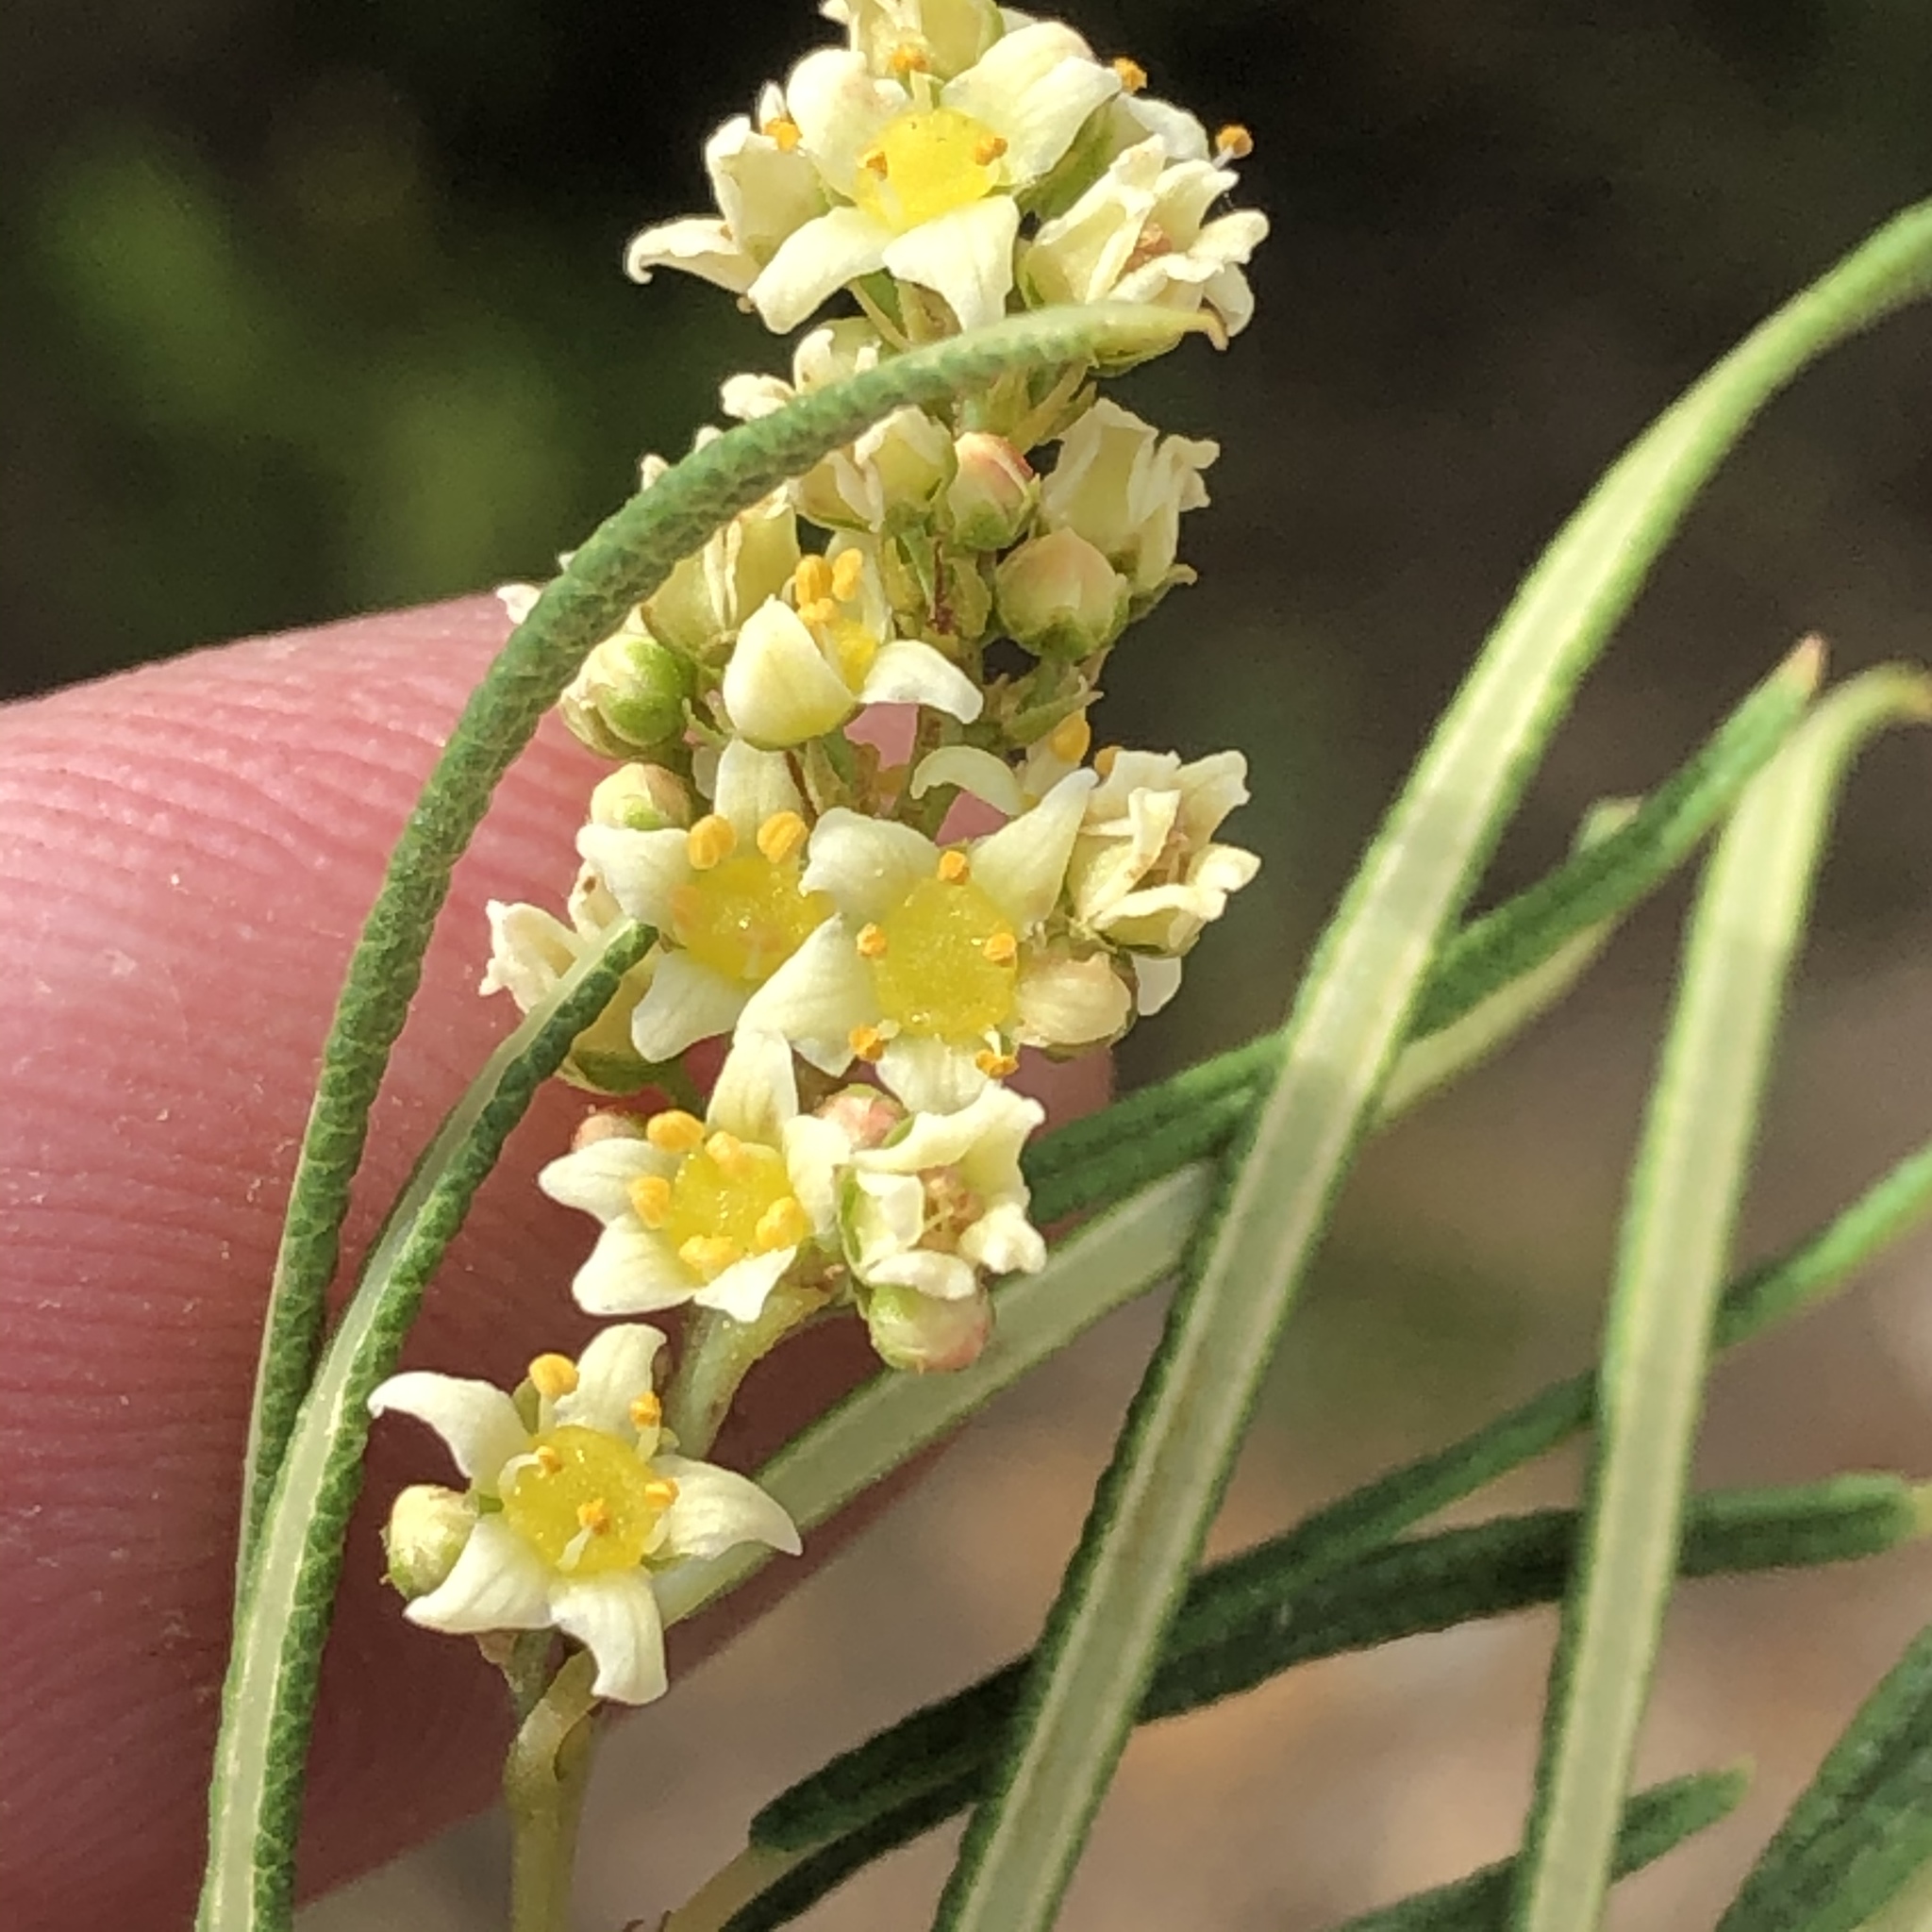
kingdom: Plantae
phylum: Tracheophyta
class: Magnoliopsida
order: Sapindales
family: Anacardiaceae
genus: Searsia
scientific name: Searsia rosmarinifolia
